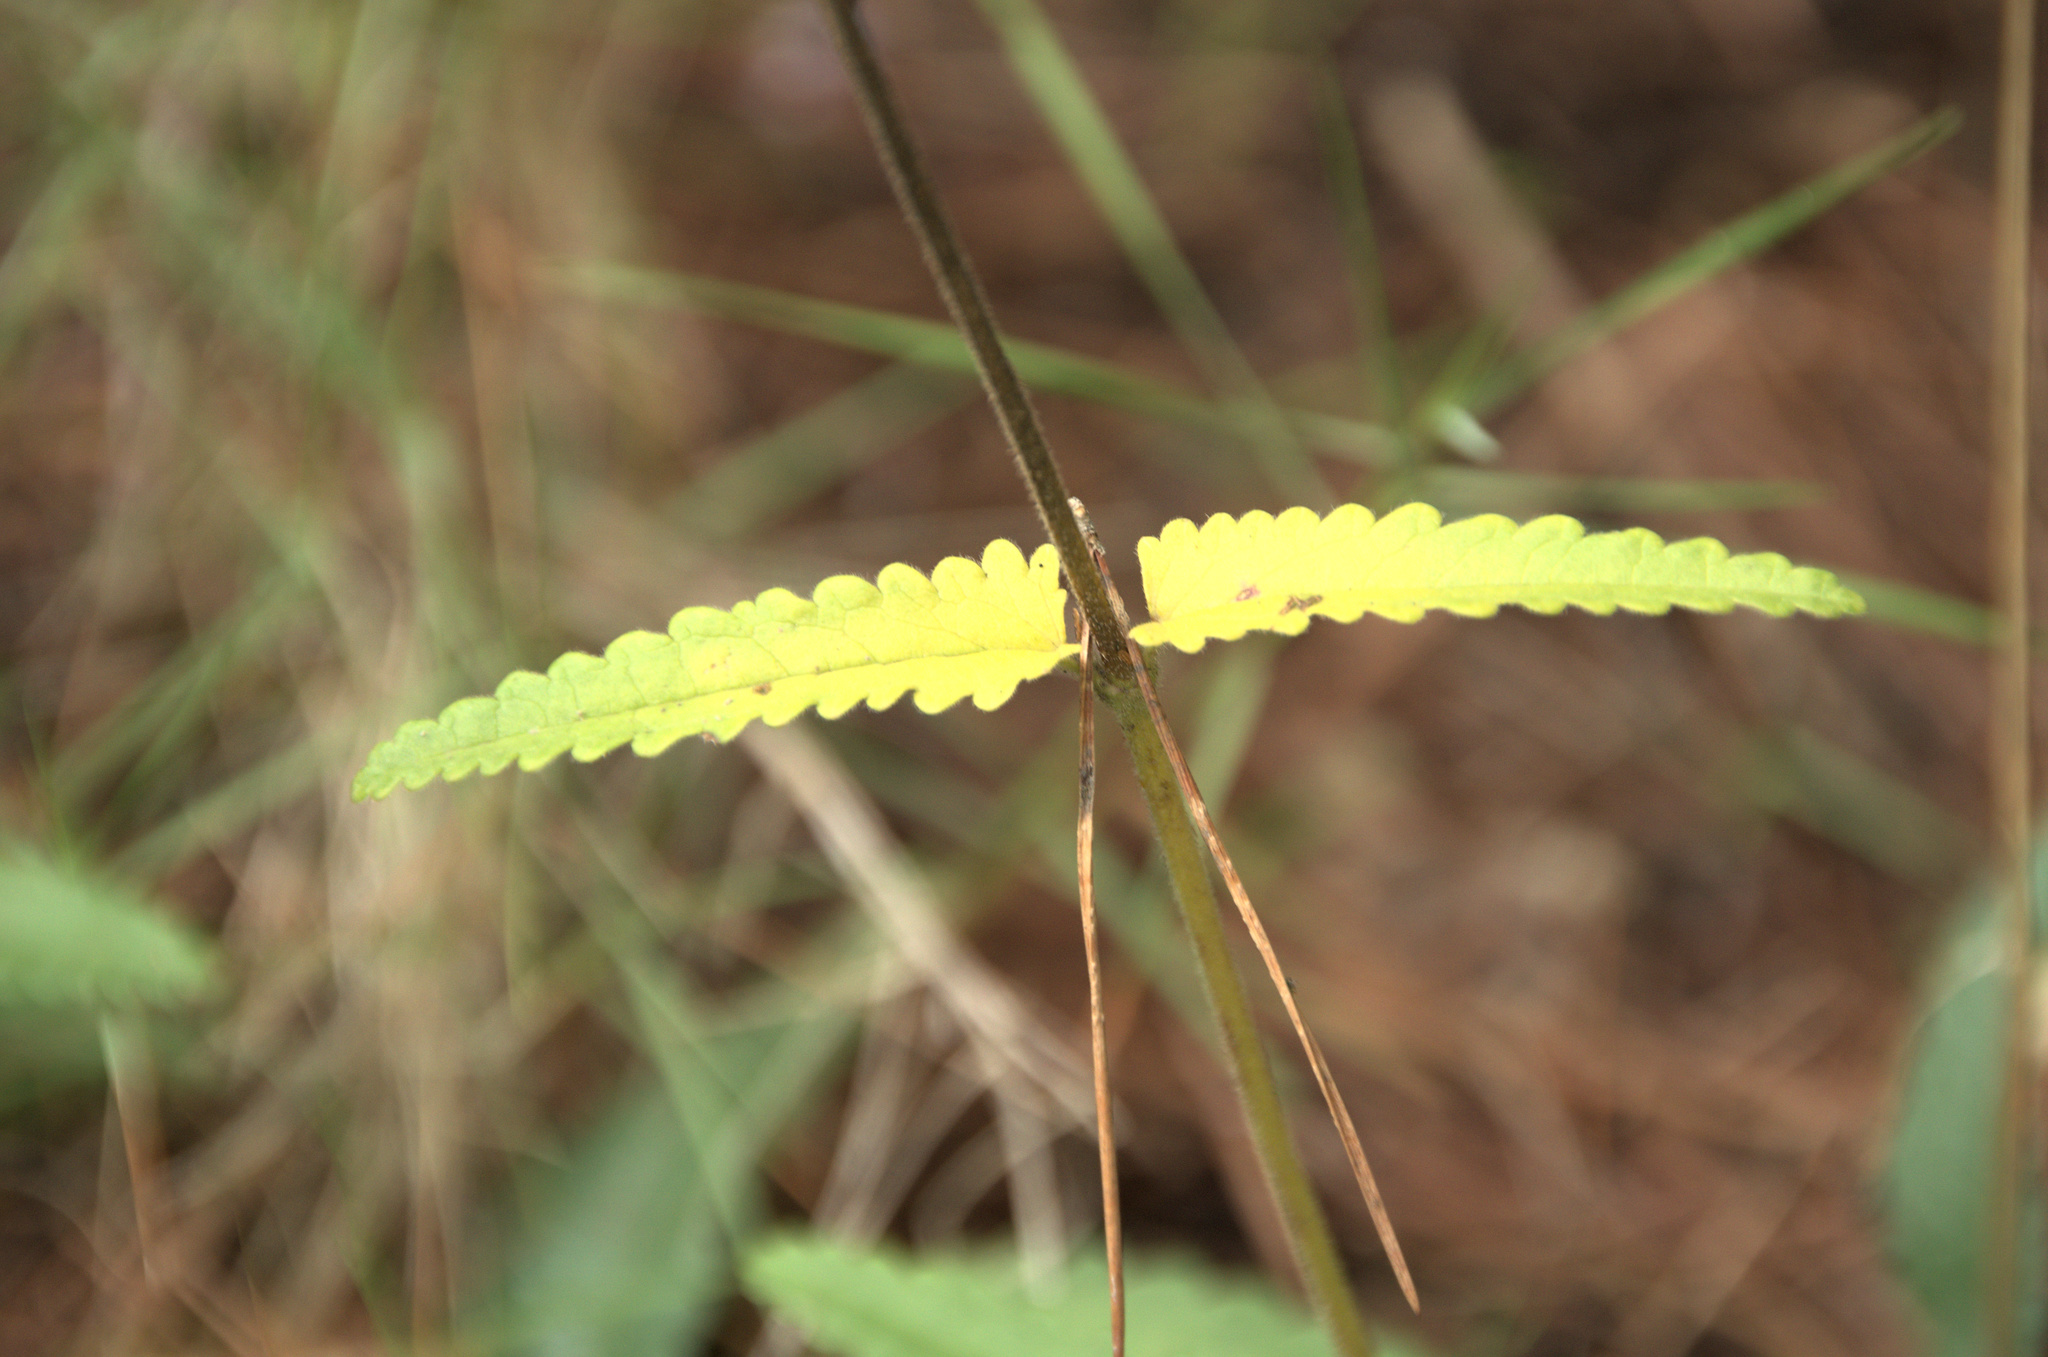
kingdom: Plantae
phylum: Tracheophyta
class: Magnoliopsida
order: Lamiales
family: Lamiaceae
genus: Betonica
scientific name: Betonica officinalis
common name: Bishop's-wort
